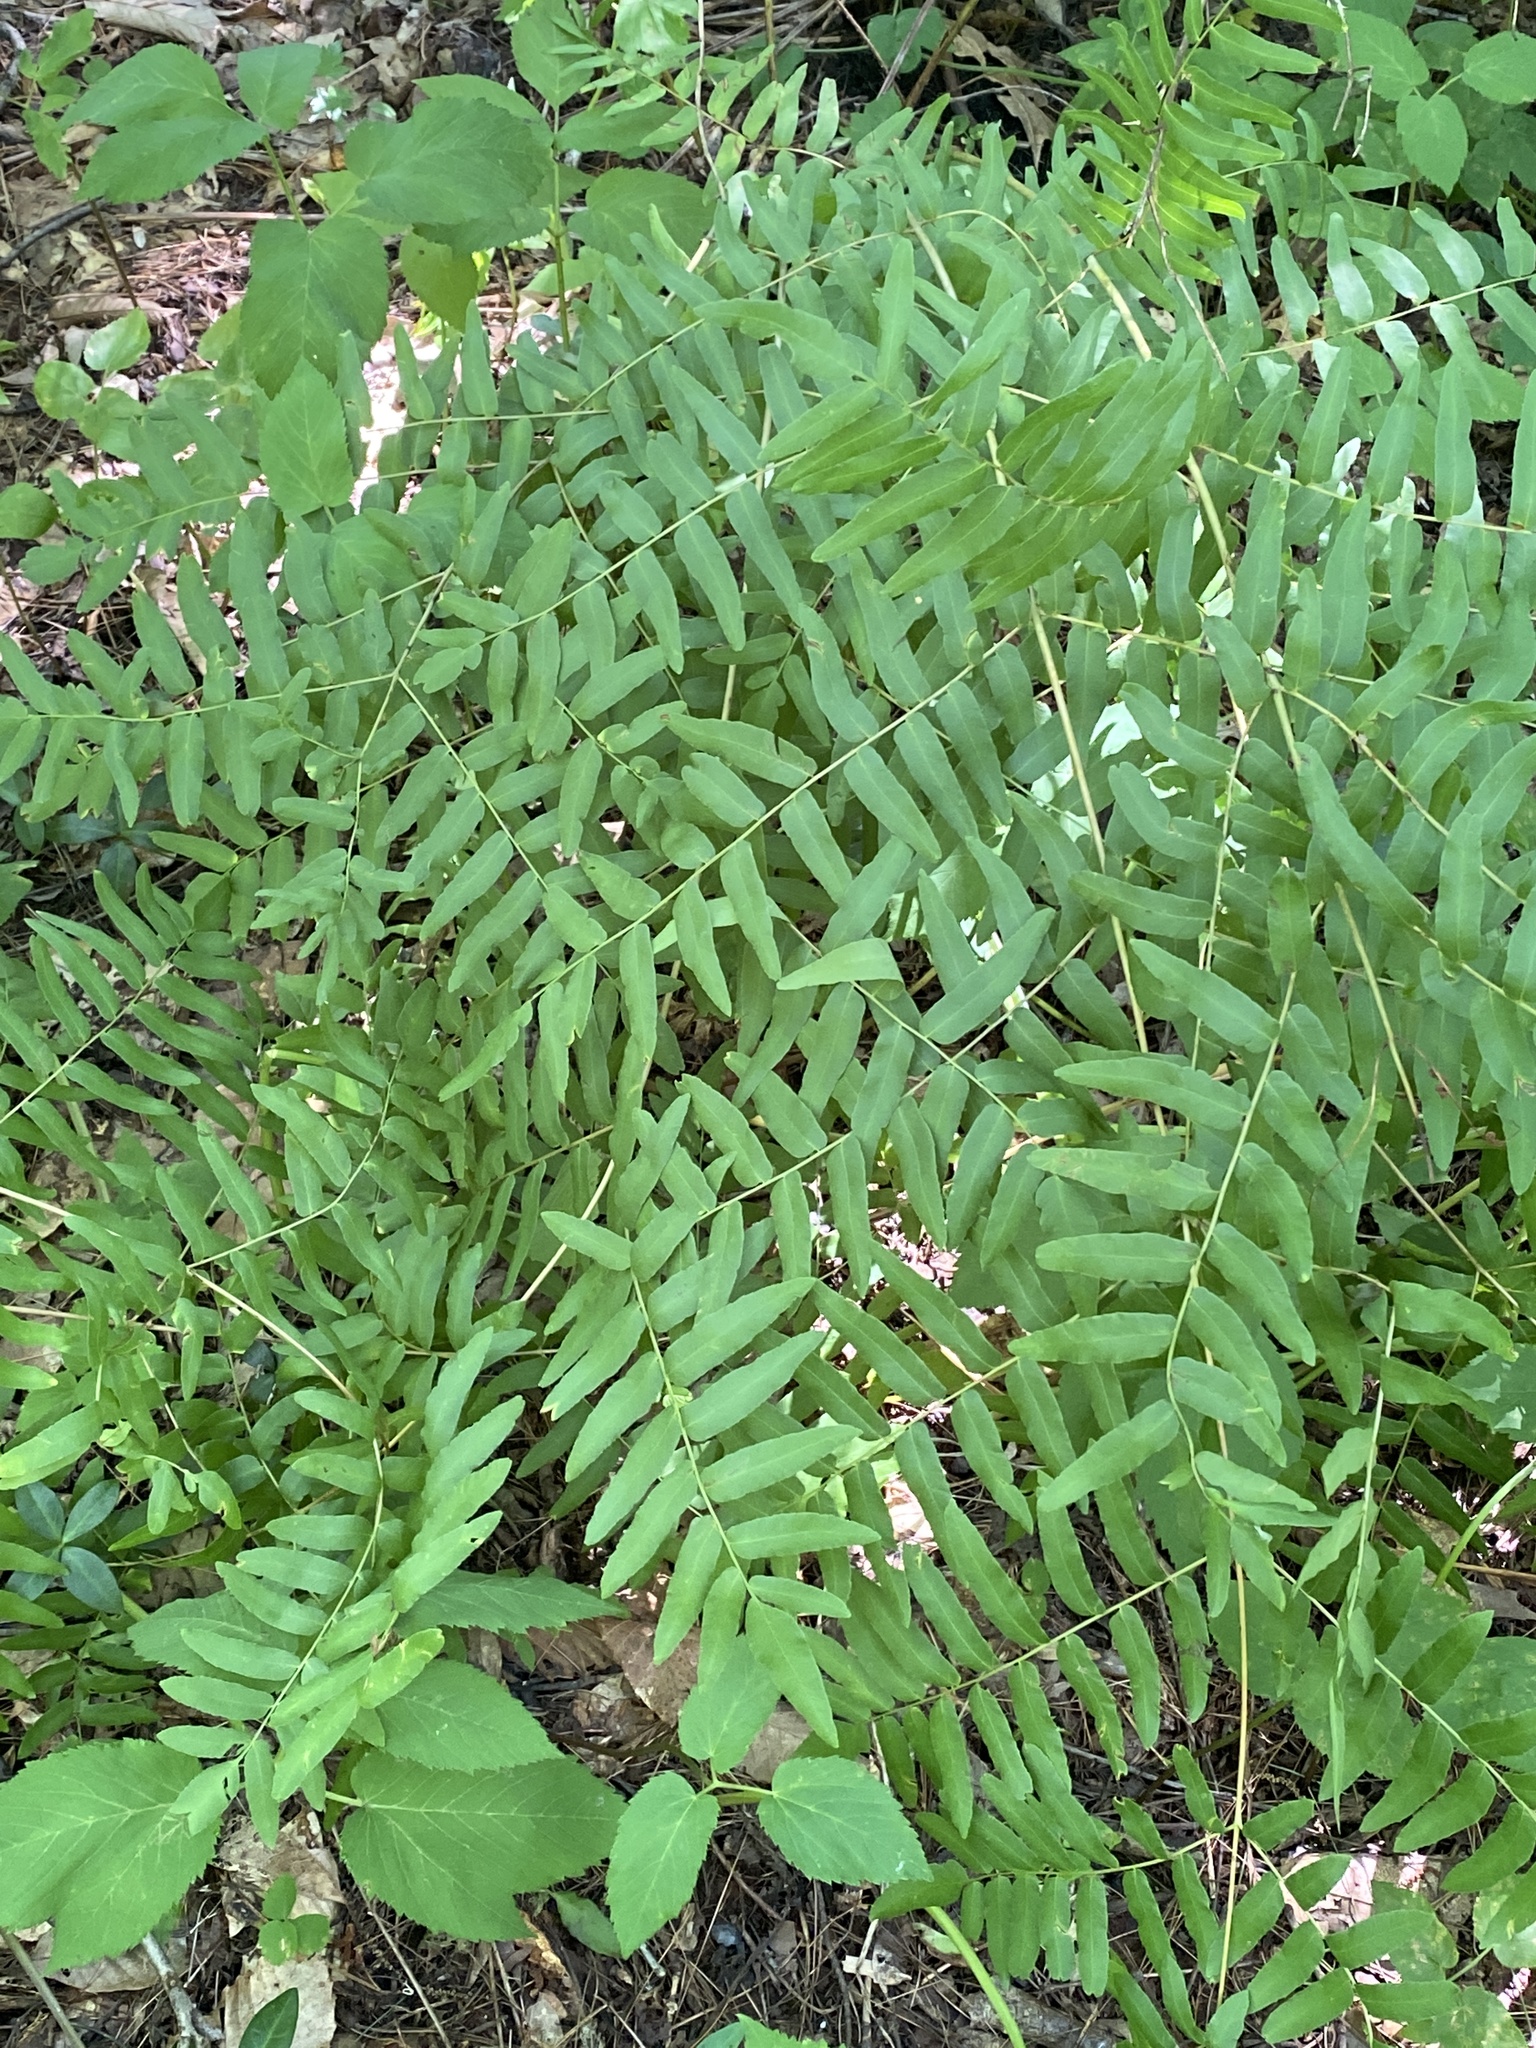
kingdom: Plantae
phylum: Tracheophyta
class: Polypodiopsida
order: Osmundales
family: Osmundaceae
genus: Osmunda
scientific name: Osmunda spectabilis
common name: American royal fern
